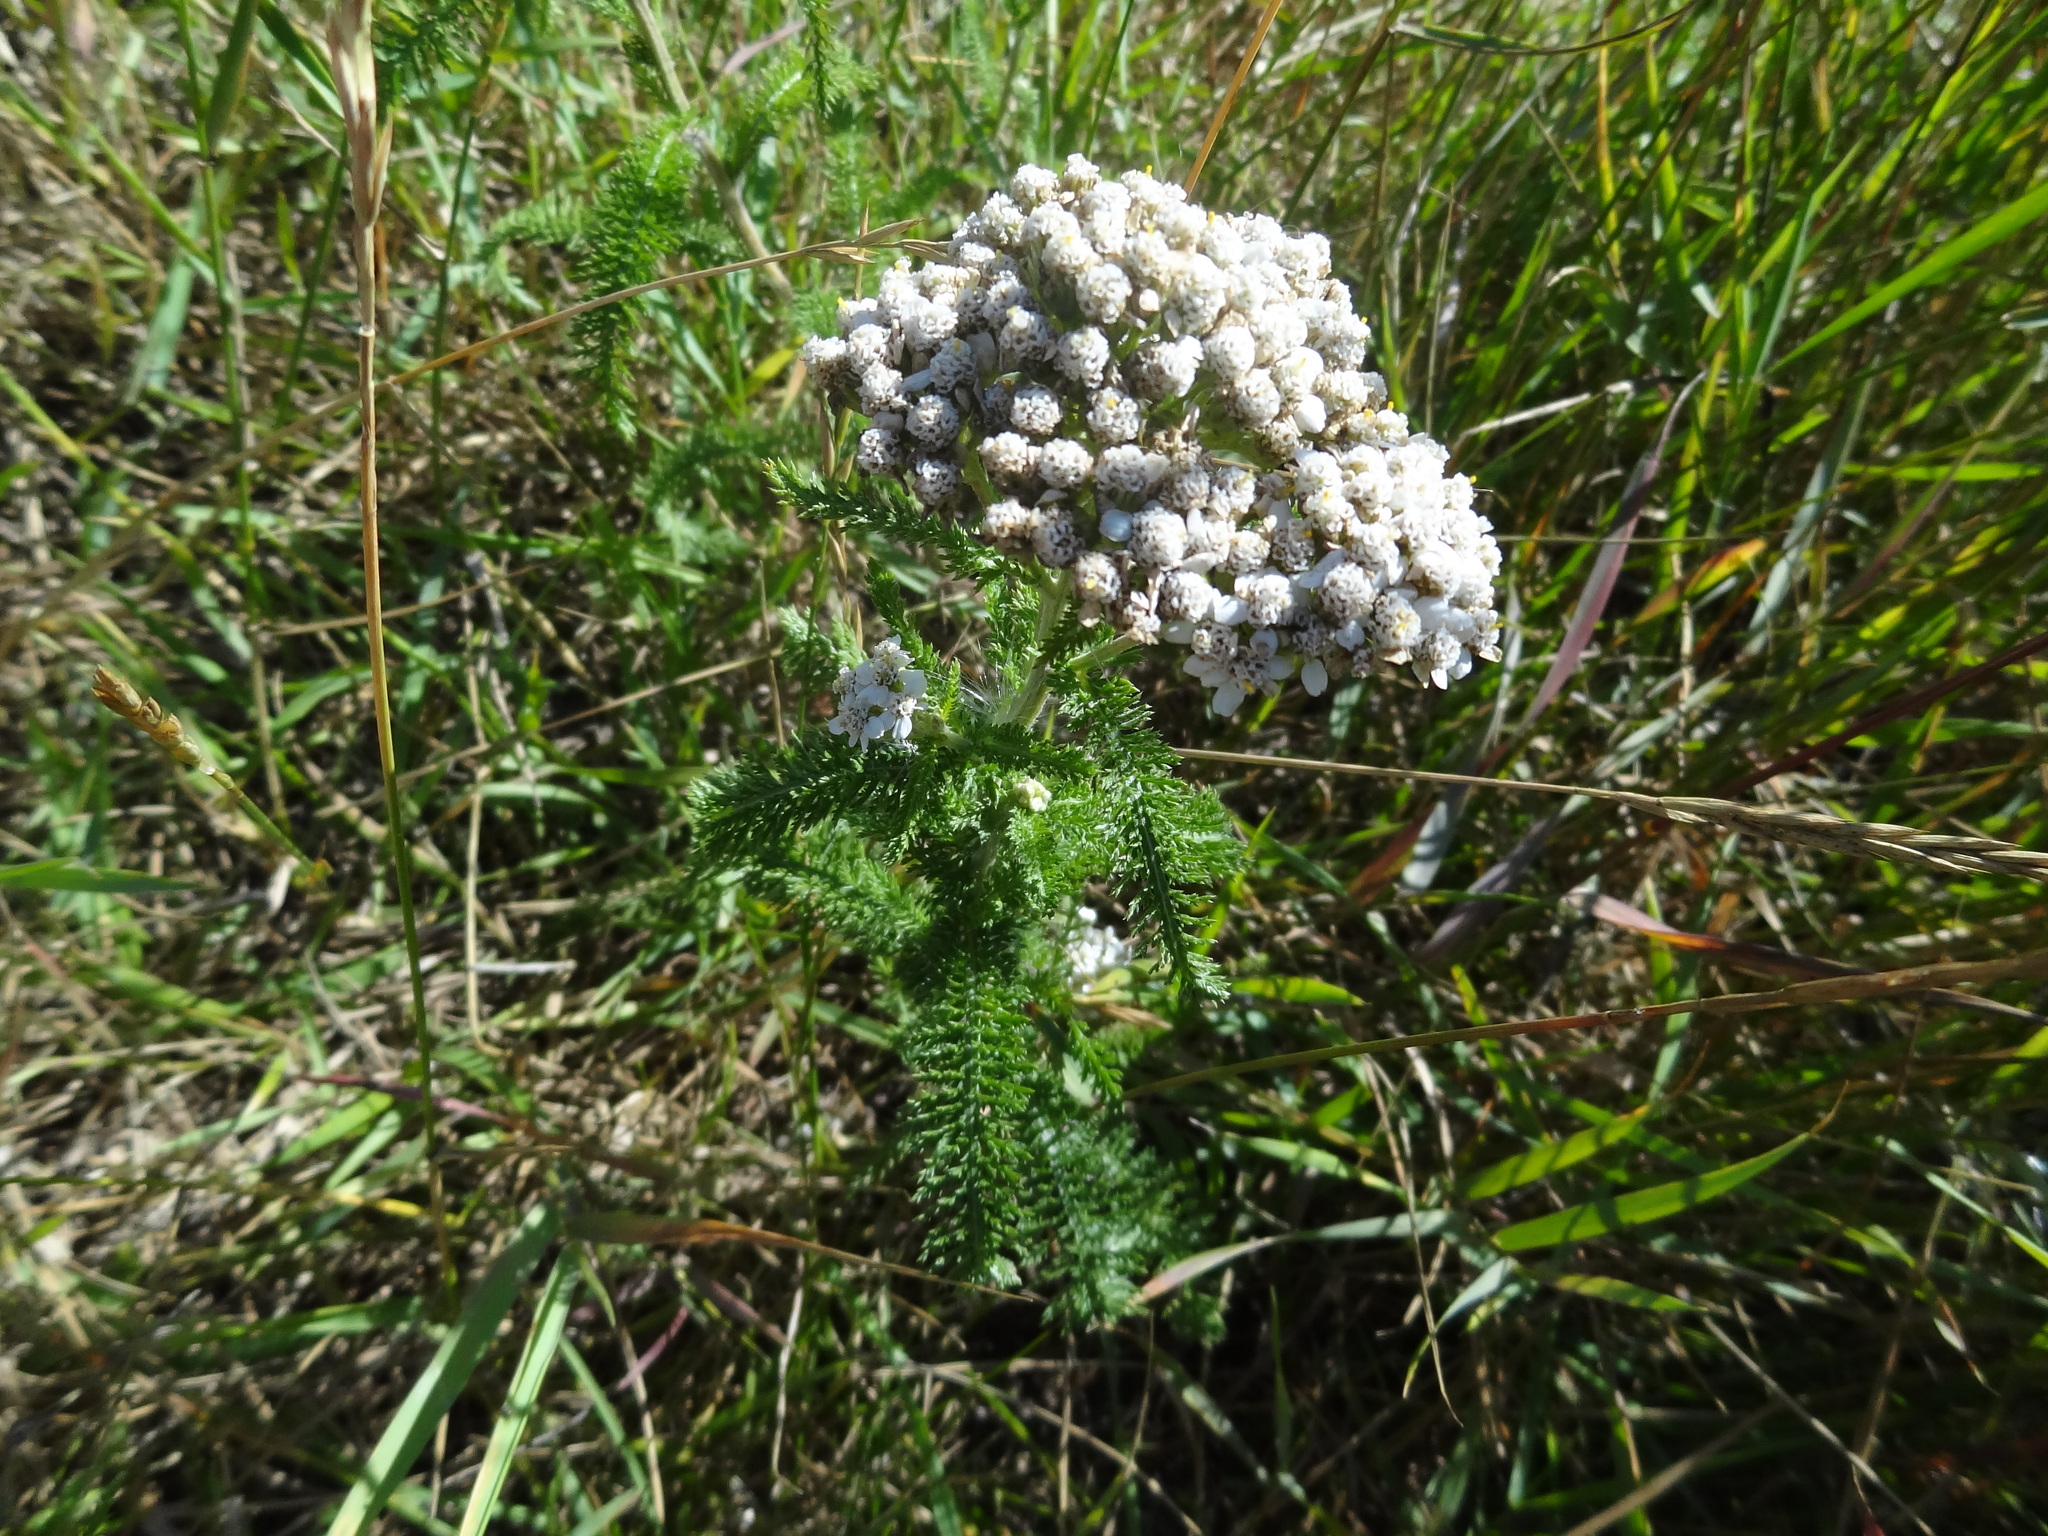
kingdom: Plantae
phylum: Tracheophyta
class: Magnoliopsida
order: Asterales
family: Asteraceae
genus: Achillea
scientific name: Achillea millefolium
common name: Yarrow
